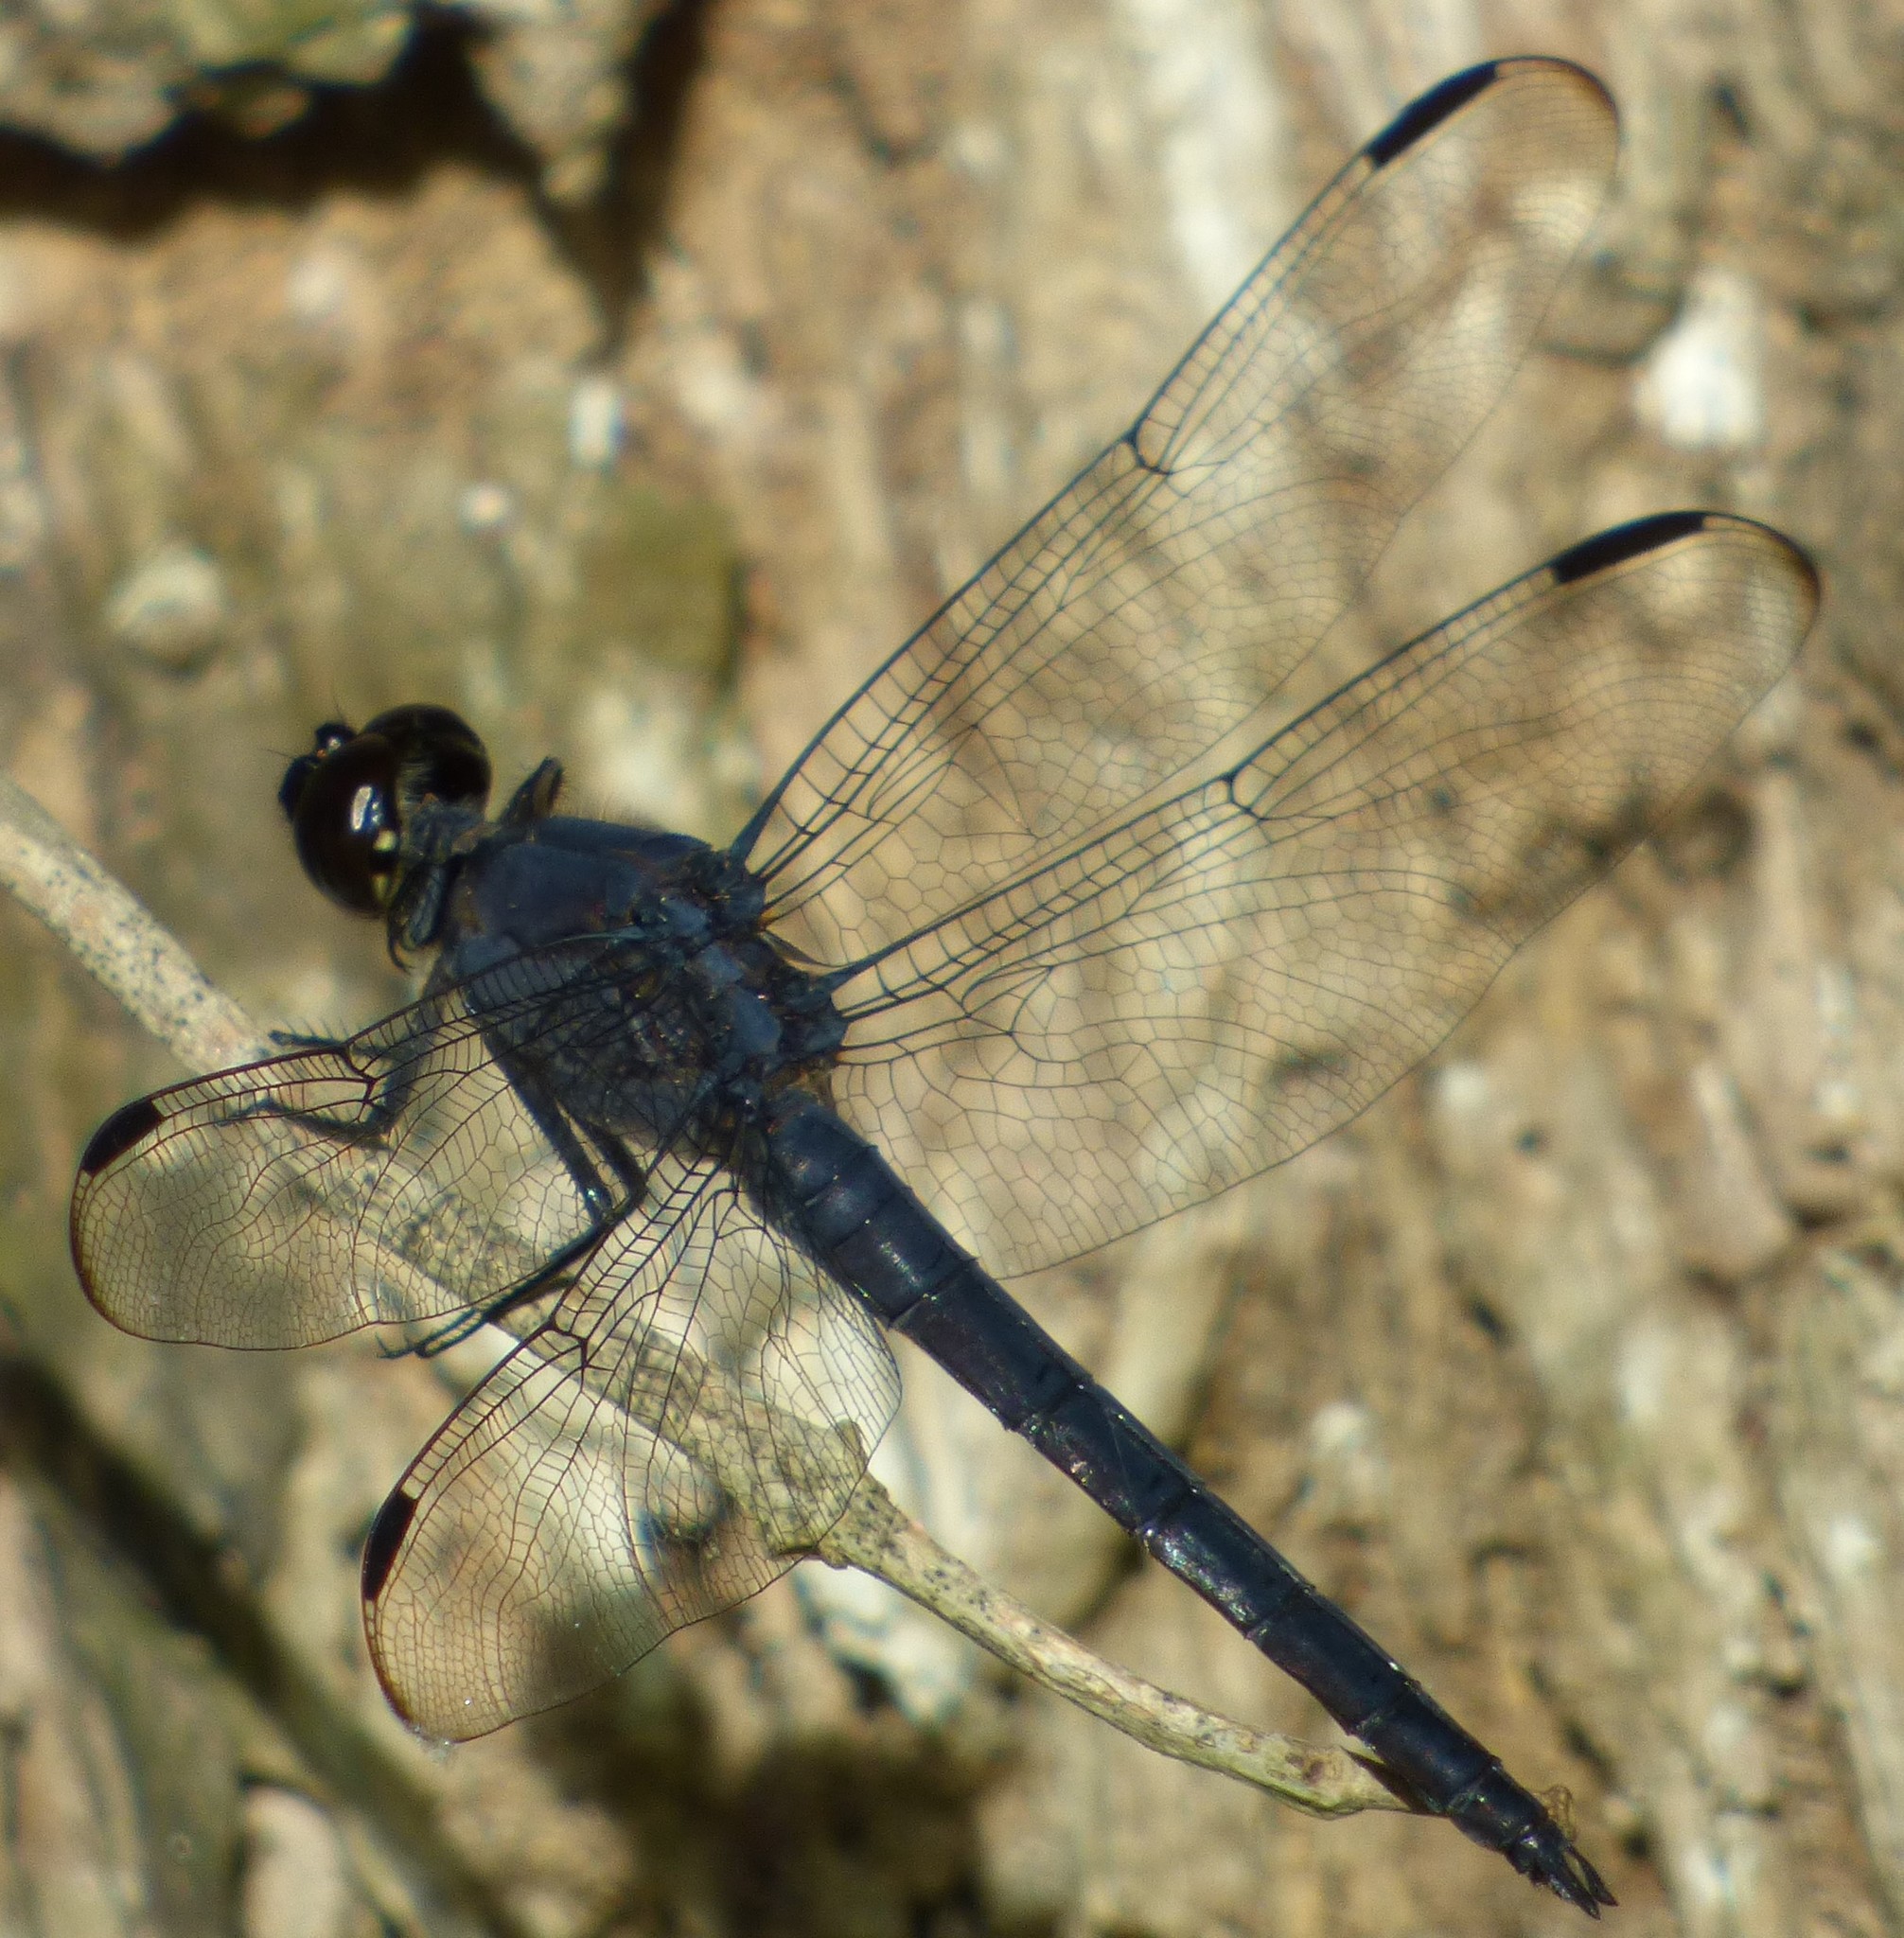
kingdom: Animalia
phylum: Arthropoda
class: Insecta
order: Odonata
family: Libellulidae
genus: Libellula
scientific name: Libellula incesta
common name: Slaty skimmer
